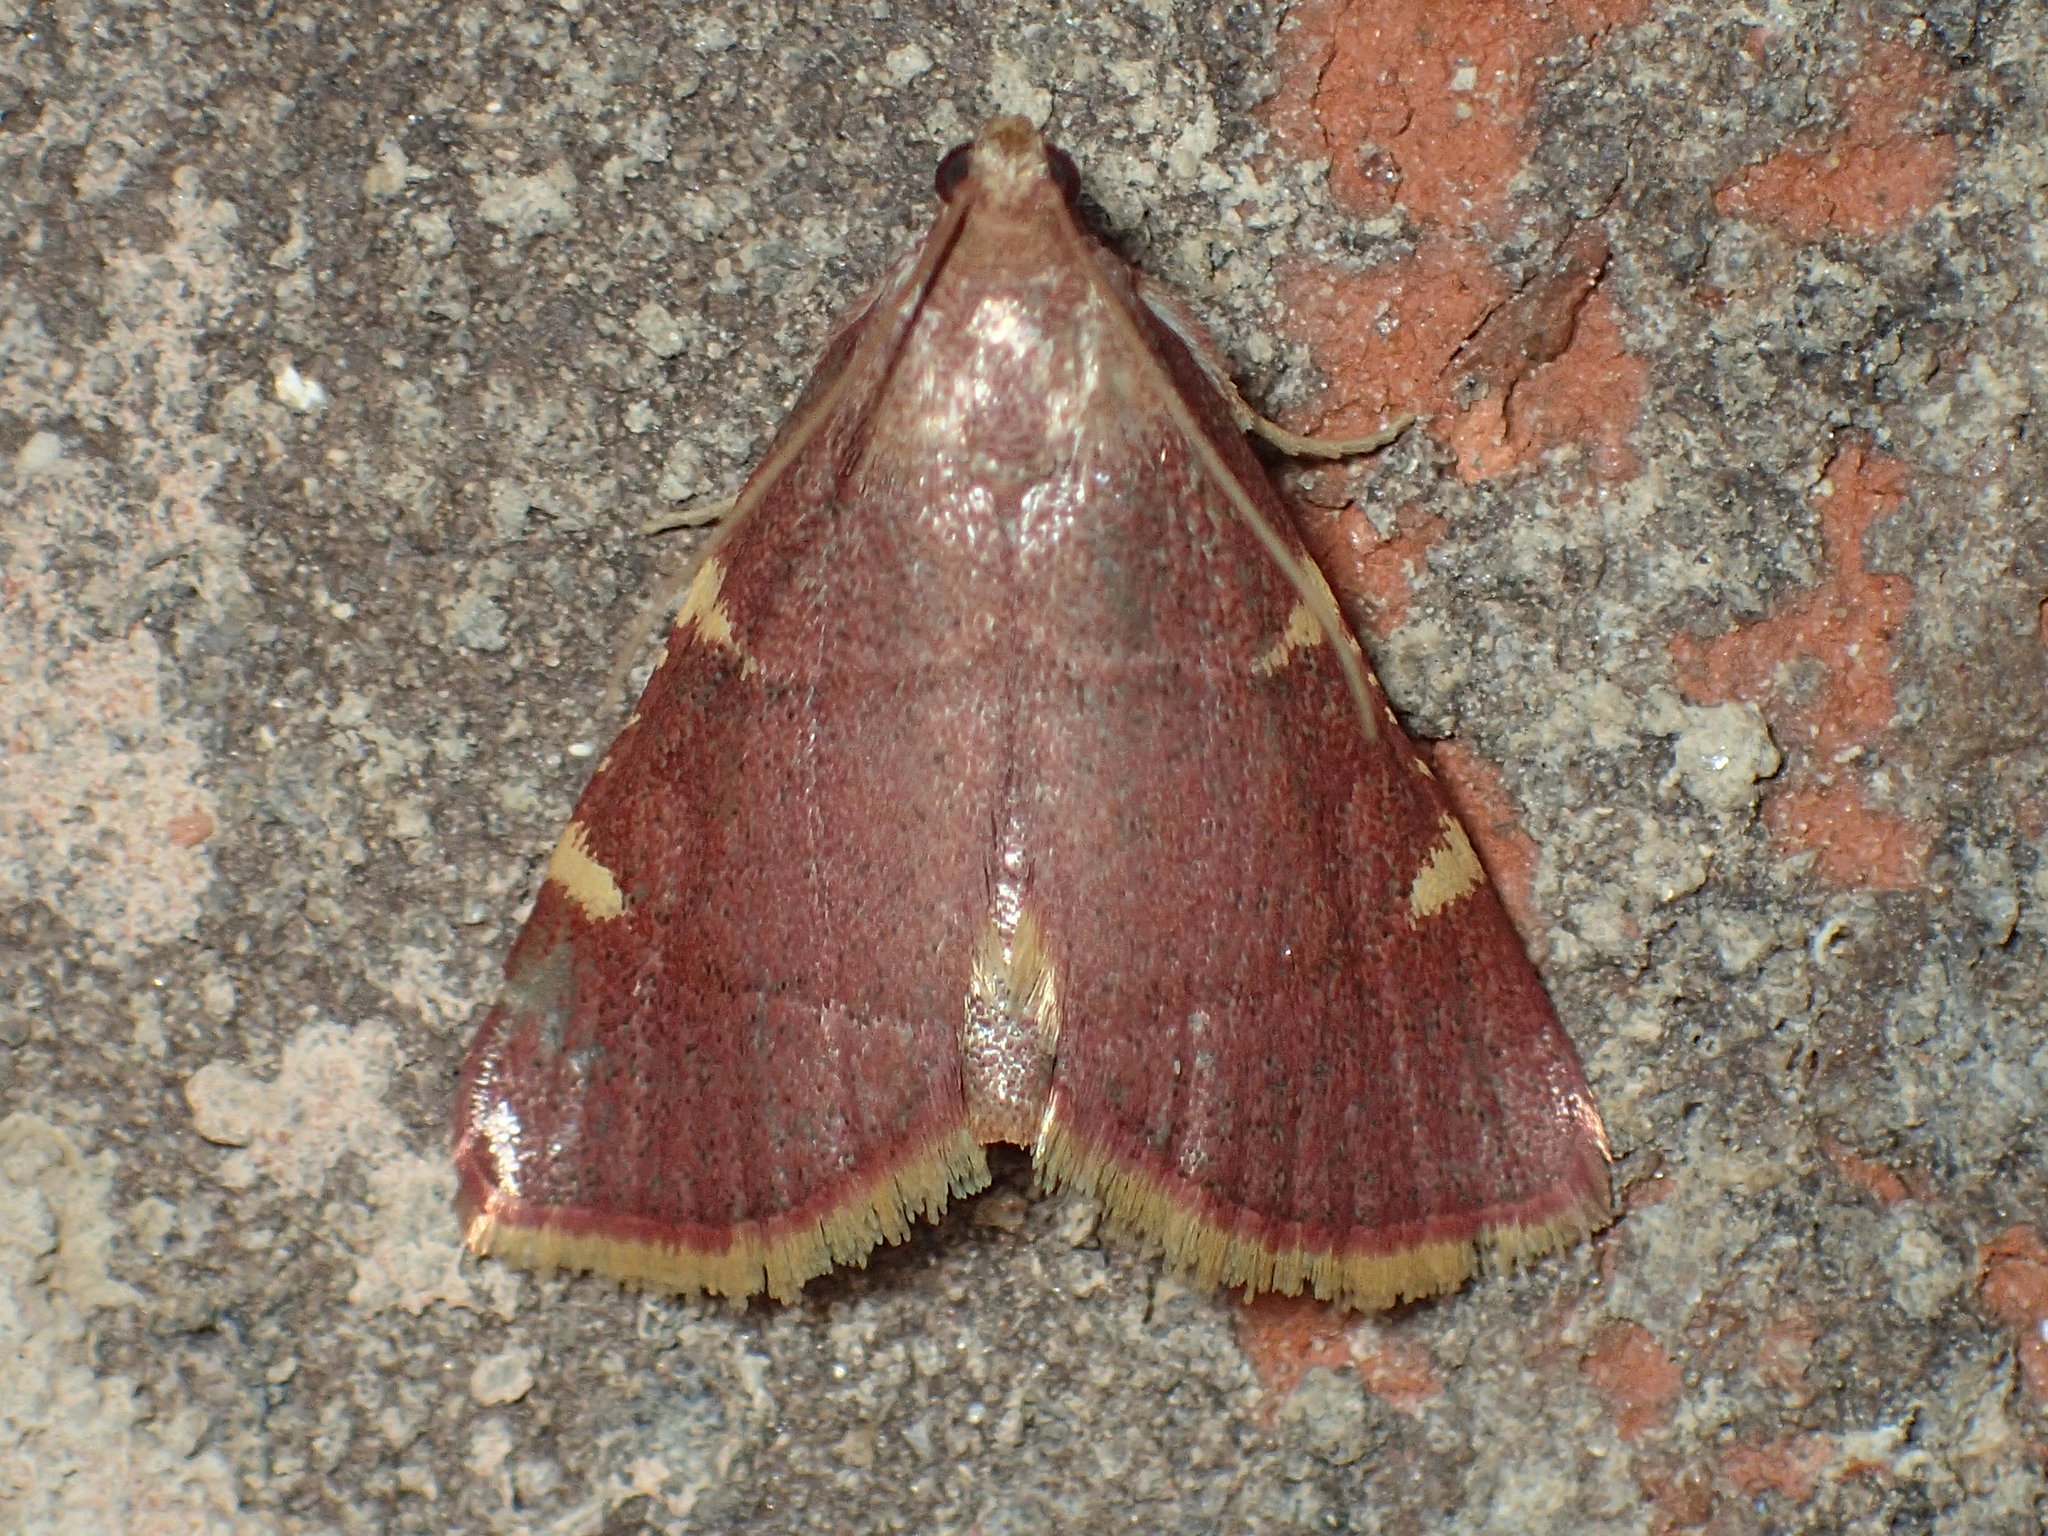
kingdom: Animalia
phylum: Arthropoda
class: Insecta
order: Lepidoptera
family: Pyralidae
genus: Hypsopygia
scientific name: Hypsopygia olinalis
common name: Yellow-fringed dolichomia moth
